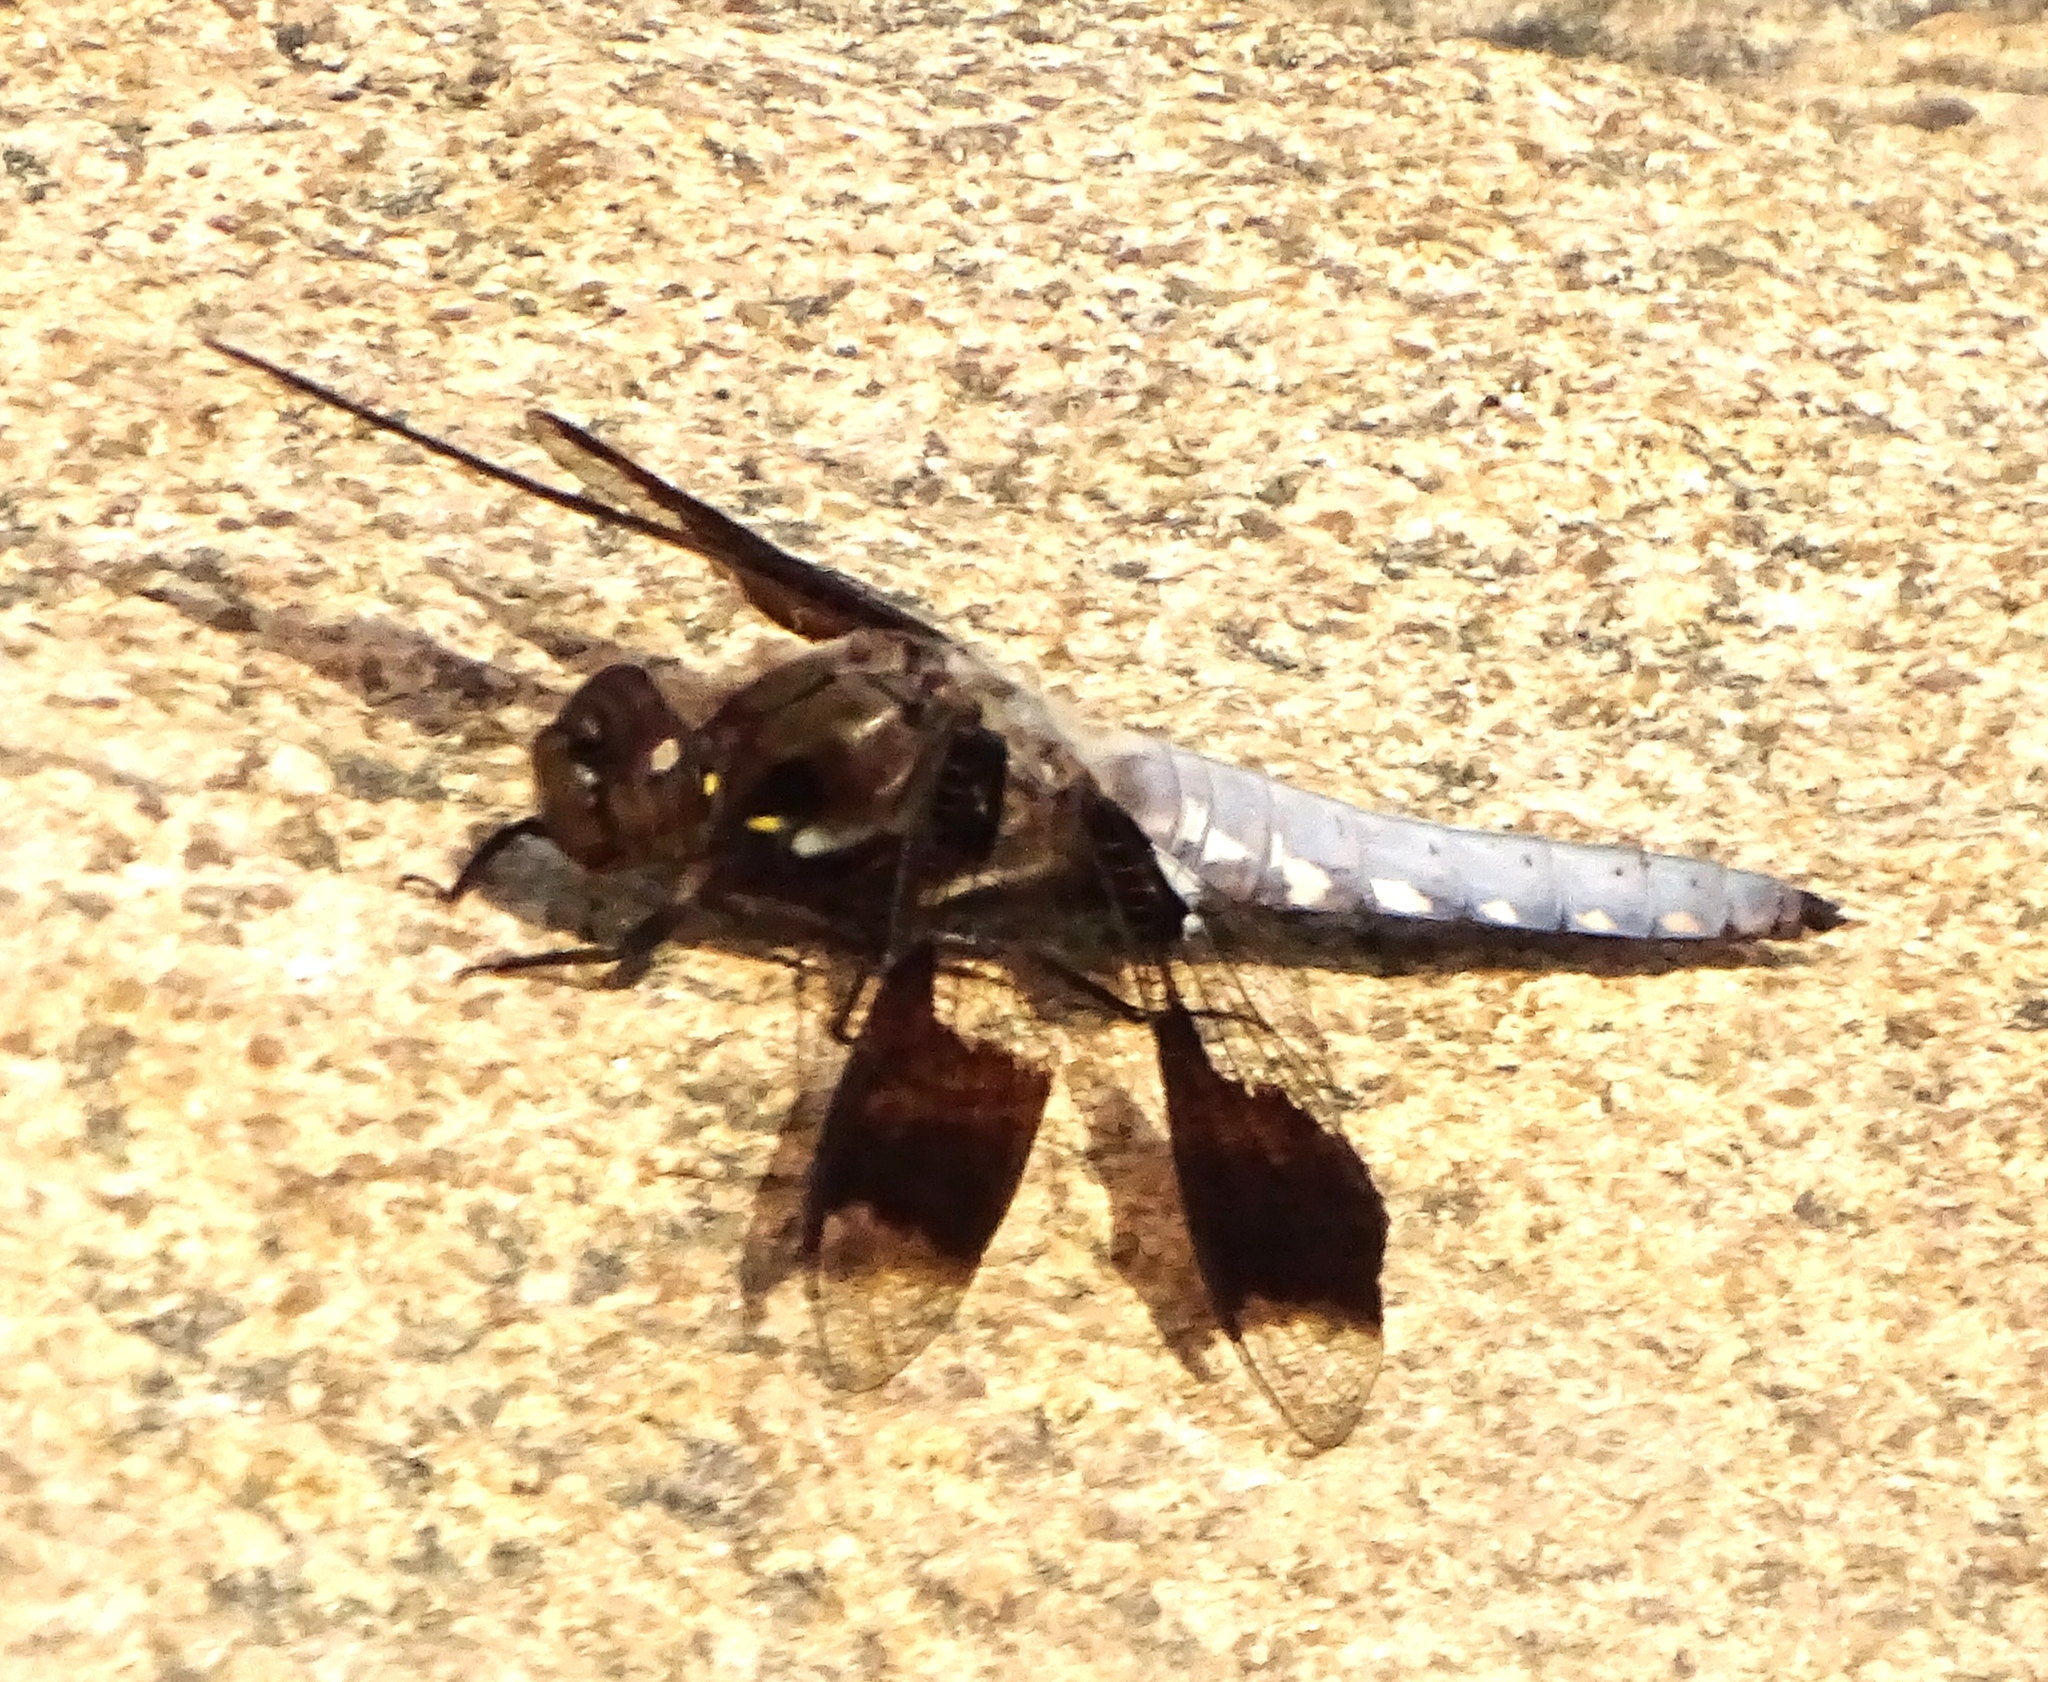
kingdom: Animalia
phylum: Arthropoda
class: Insecta
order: Odonata
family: Libellulidae
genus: Plathemis
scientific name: Plathemis lydia
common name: Common whitetail
